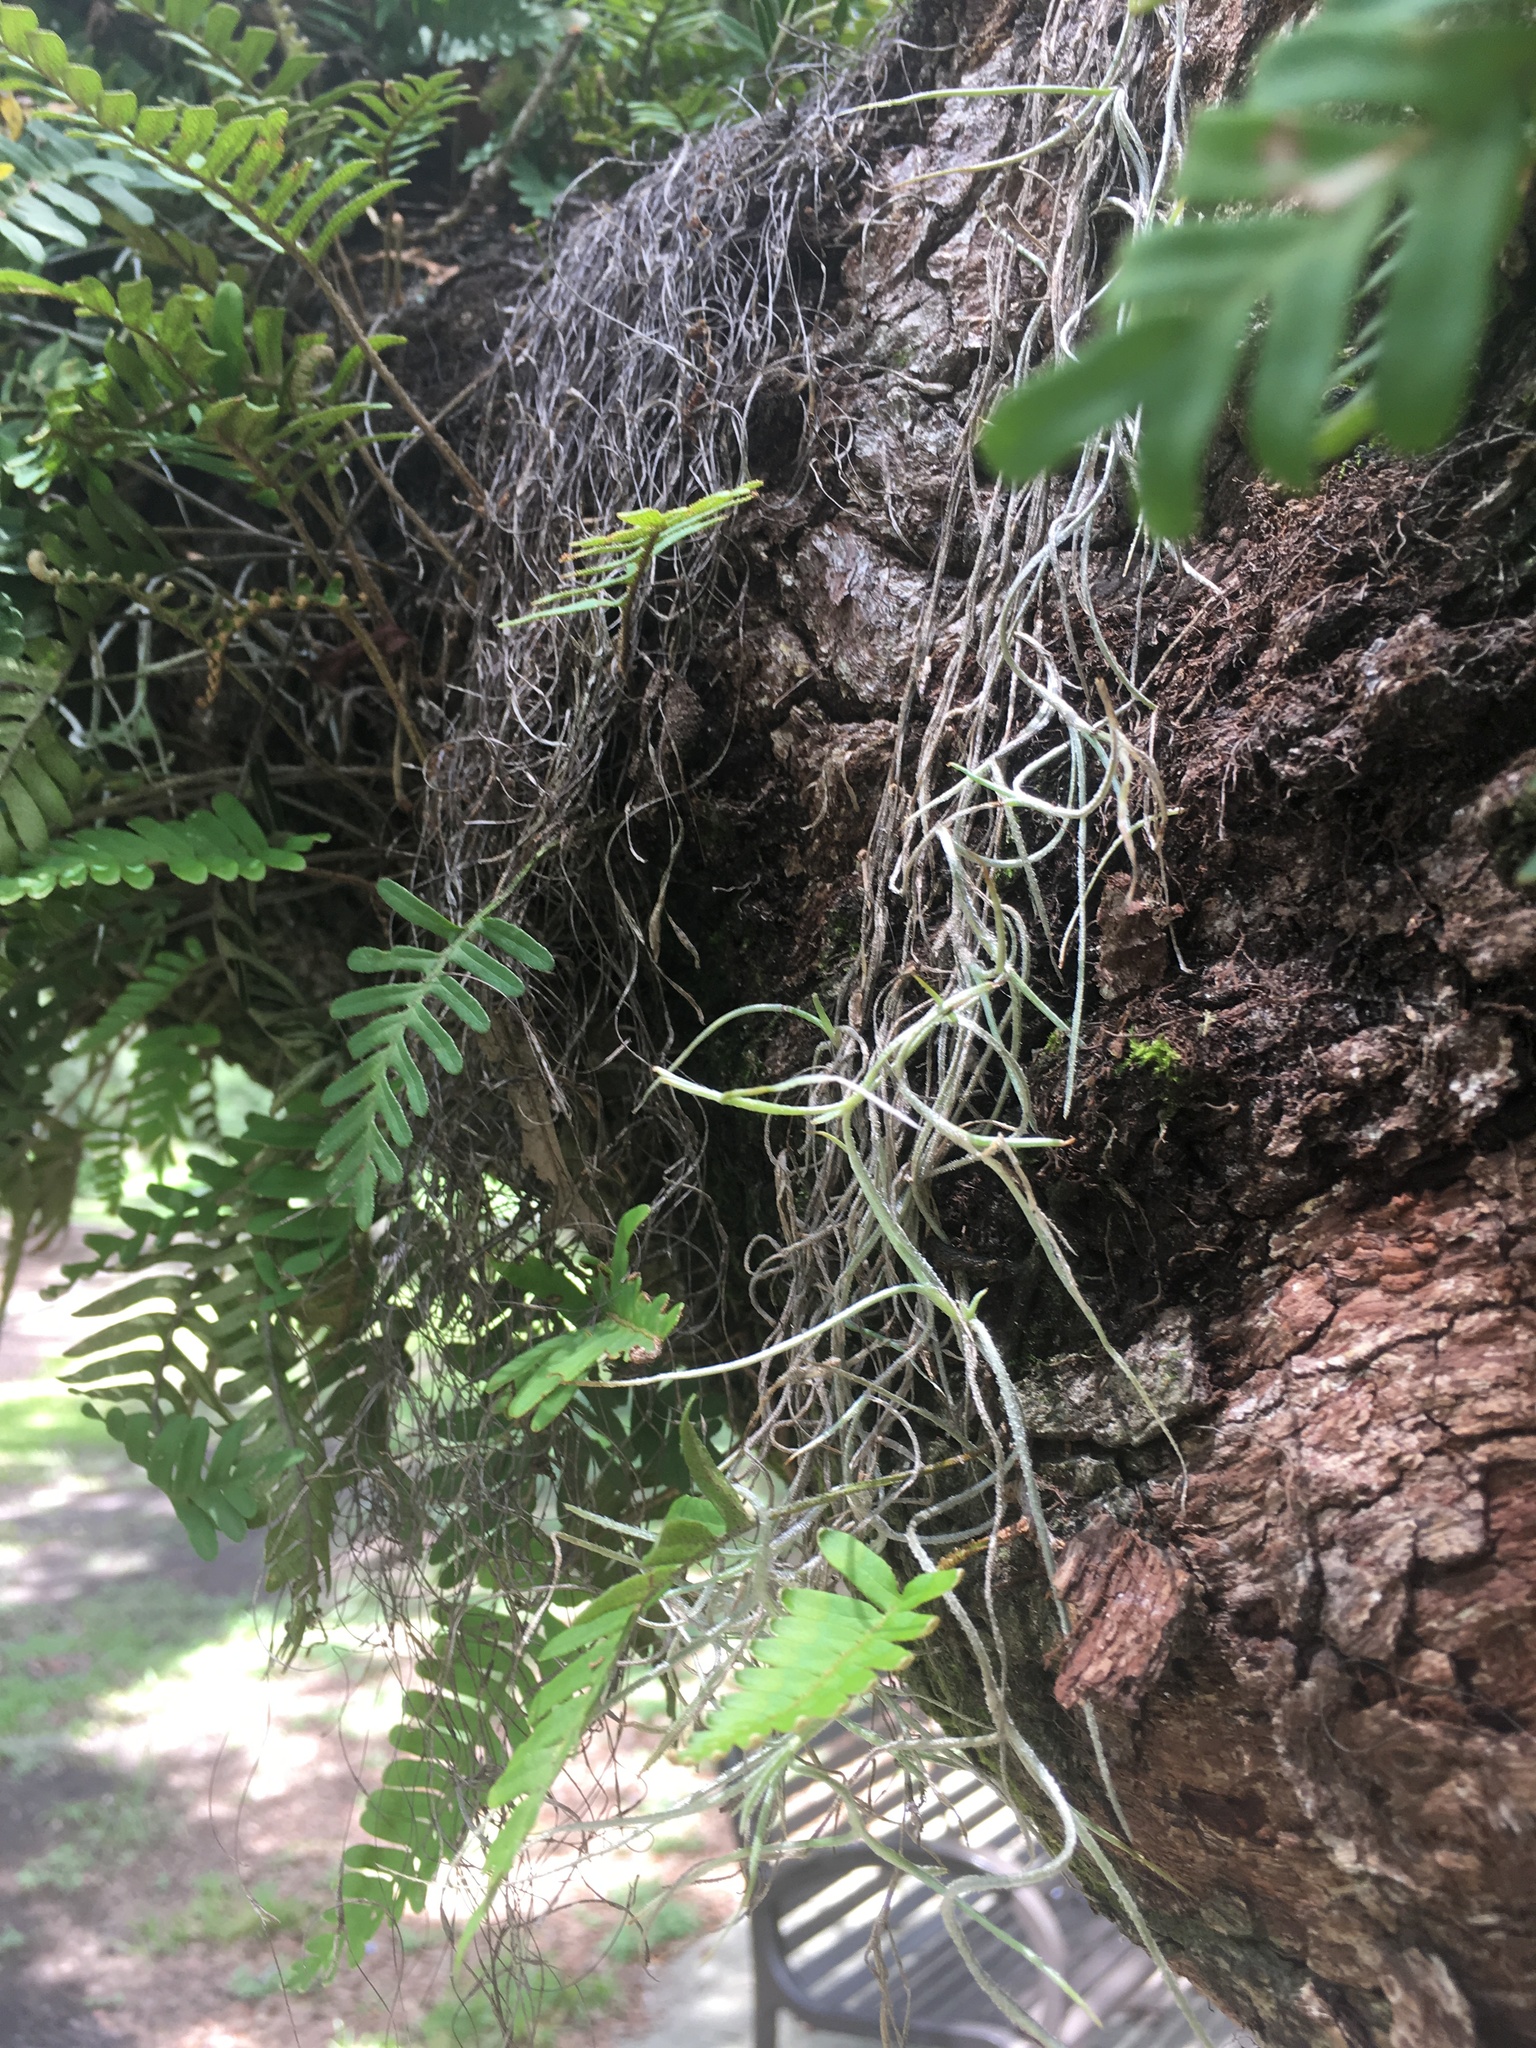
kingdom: Plantae
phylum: Tracheophyta
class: Polypodiopsida
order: Polypodiales
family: Polypodiaceae
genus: Pleopeltis
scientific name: Pleopeltis michauxiana
